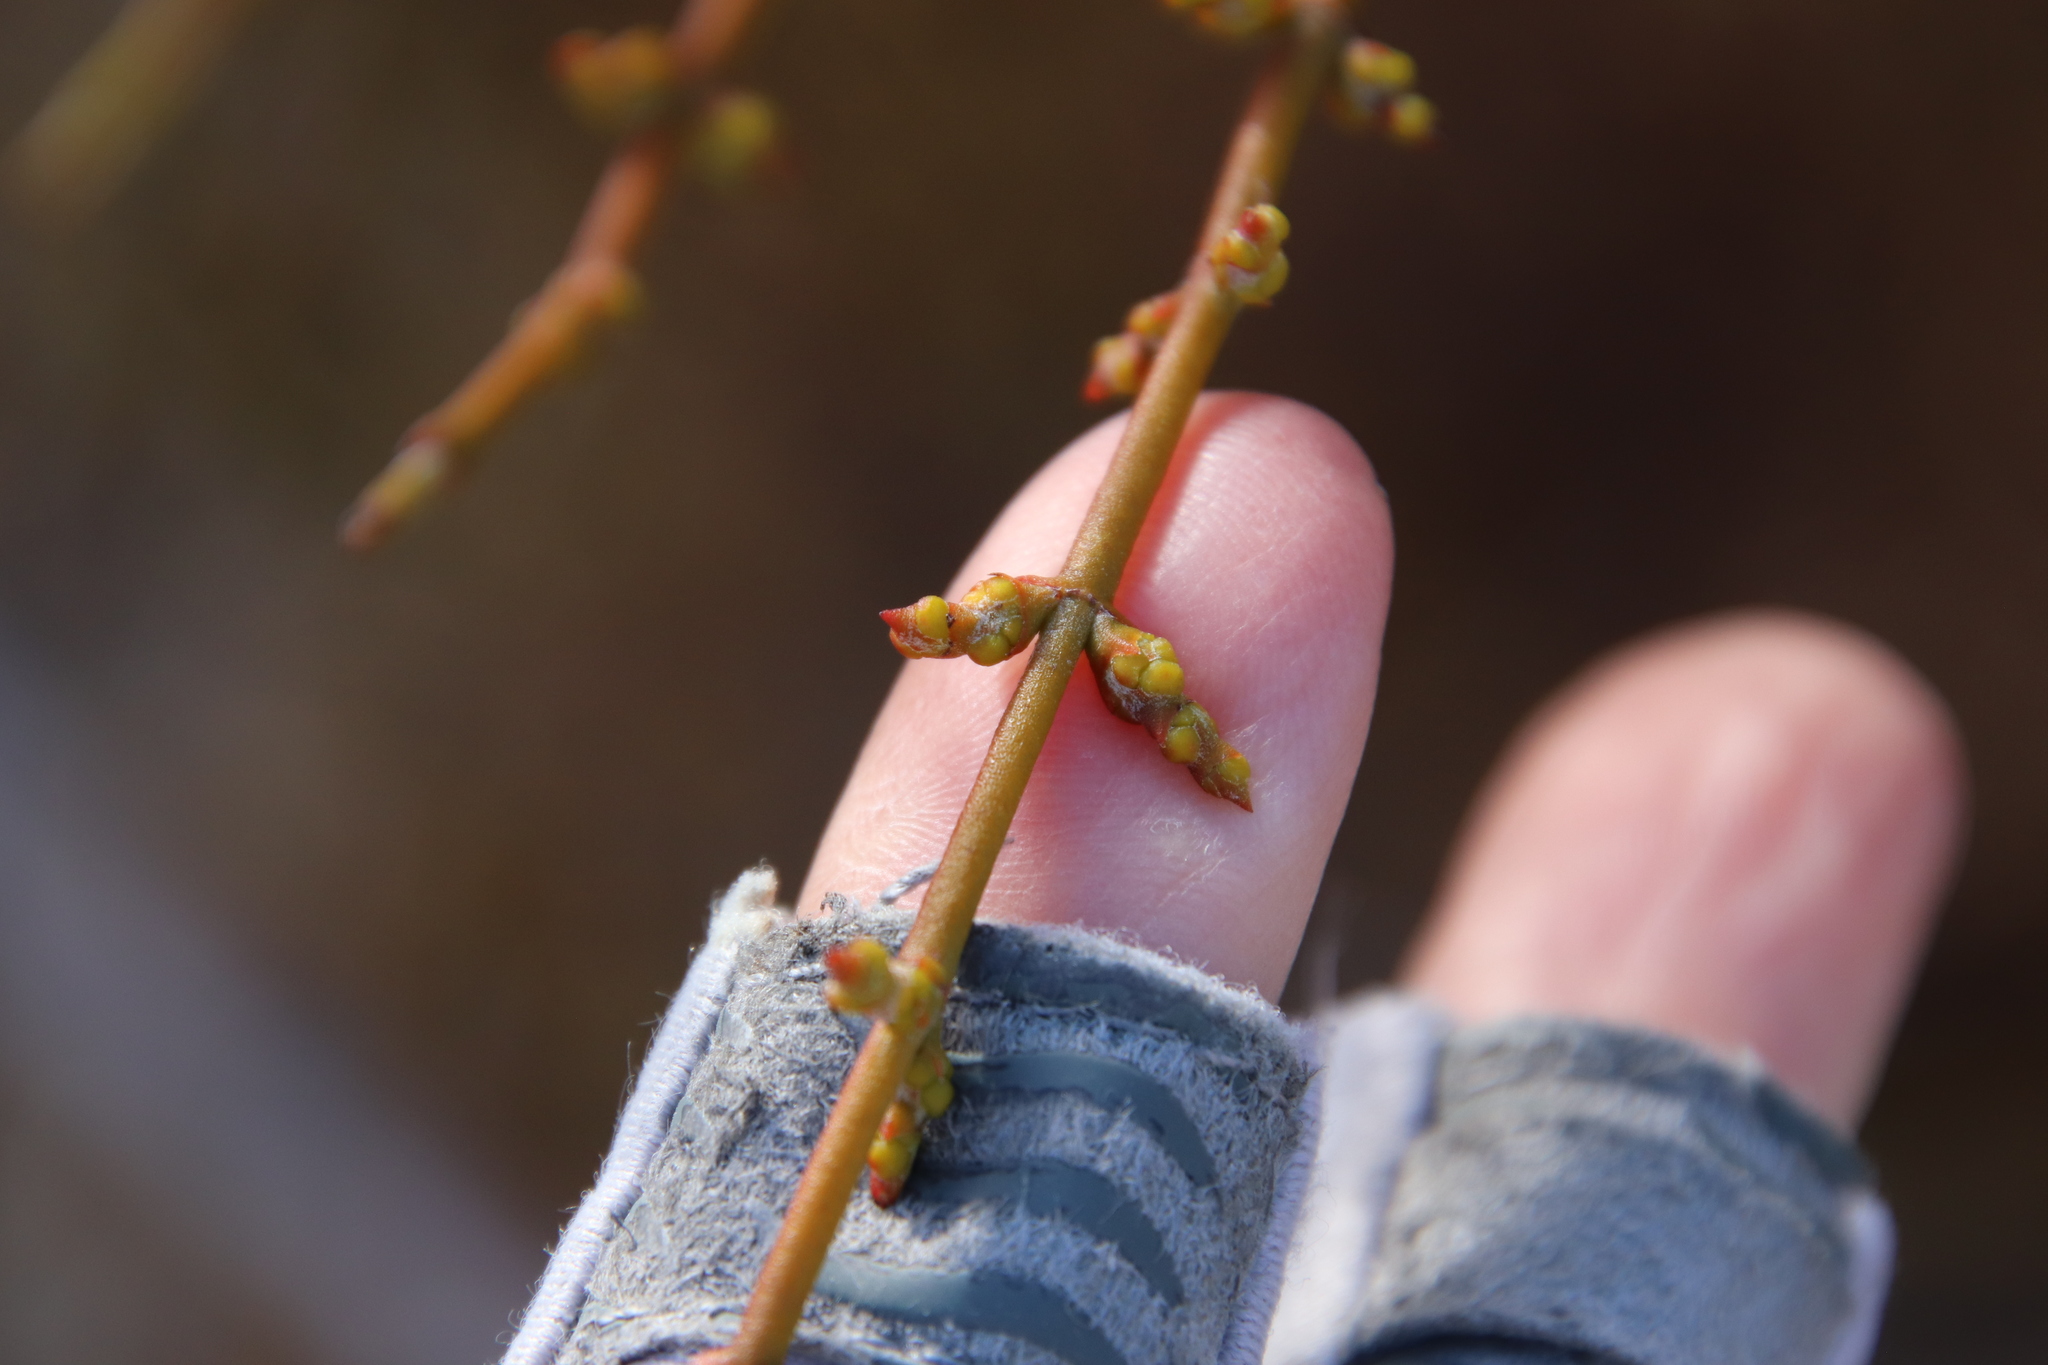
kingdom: Plantae
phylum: Tracheophyta
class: Magnoliopsida
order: Santalales
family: Viscaceae
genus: Phoradendron
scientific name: Phoradendron californicum
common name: Acacia mistletoe
